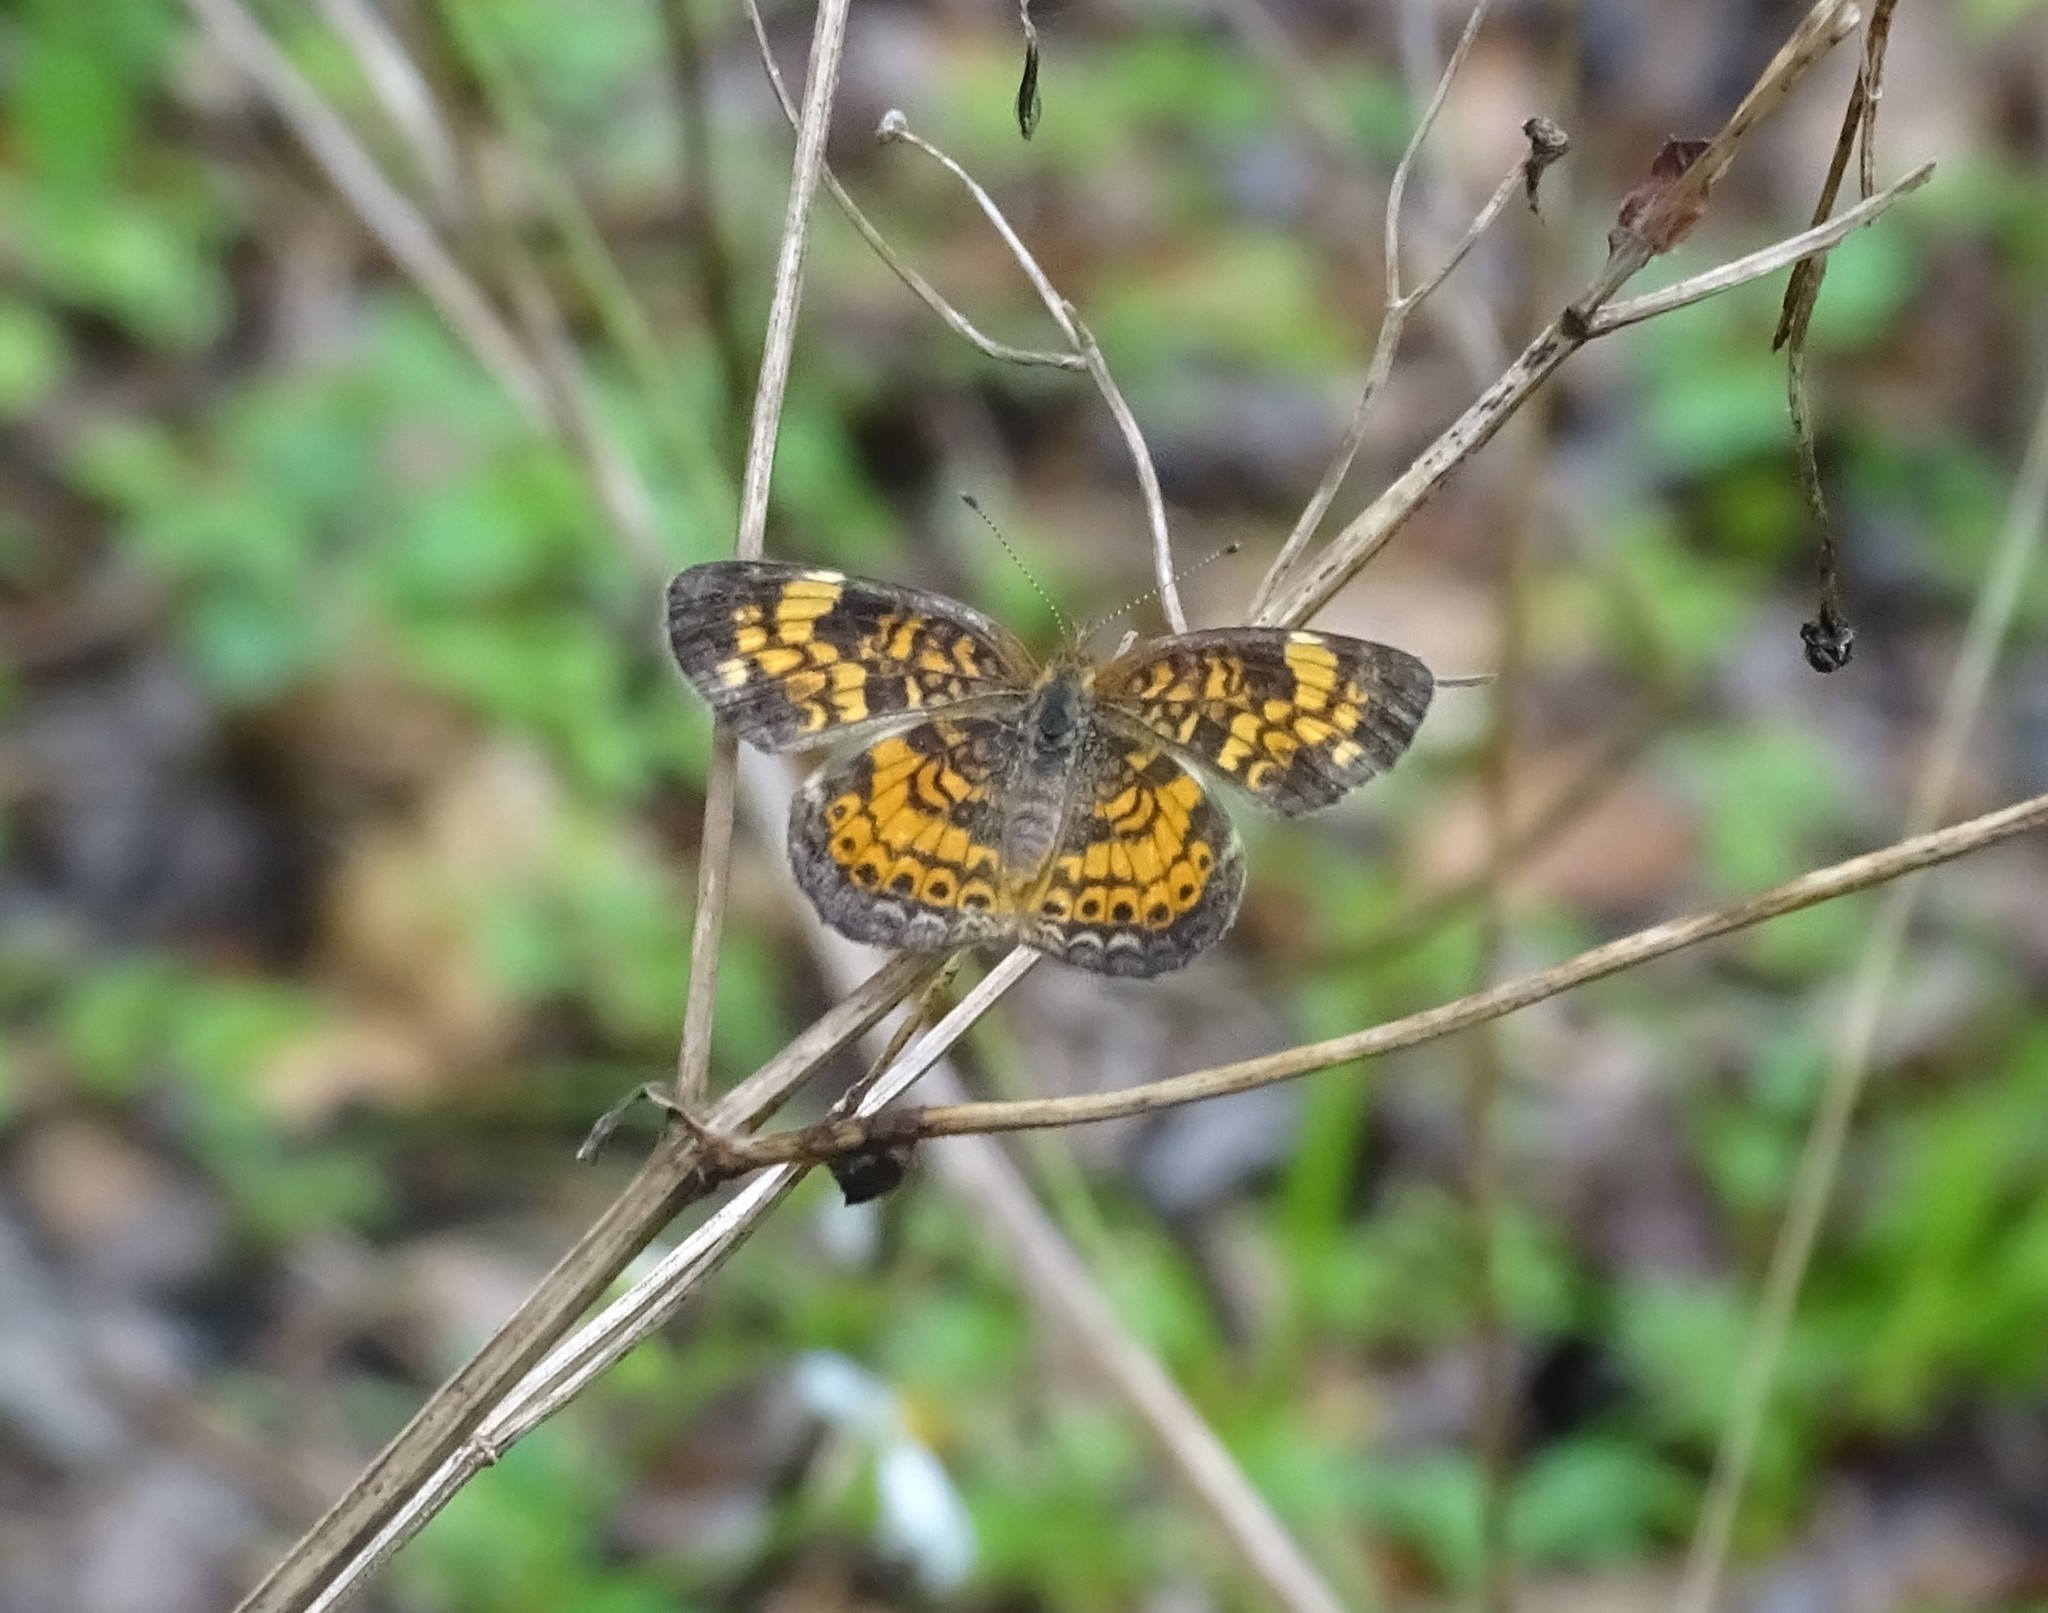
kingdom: Animalia
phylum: Arthropoda
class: Insecta
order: Lepidoptera
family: Nymphalidae
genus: Phyciodes
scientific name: Phyciodes tharos
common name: Pearl crescent
